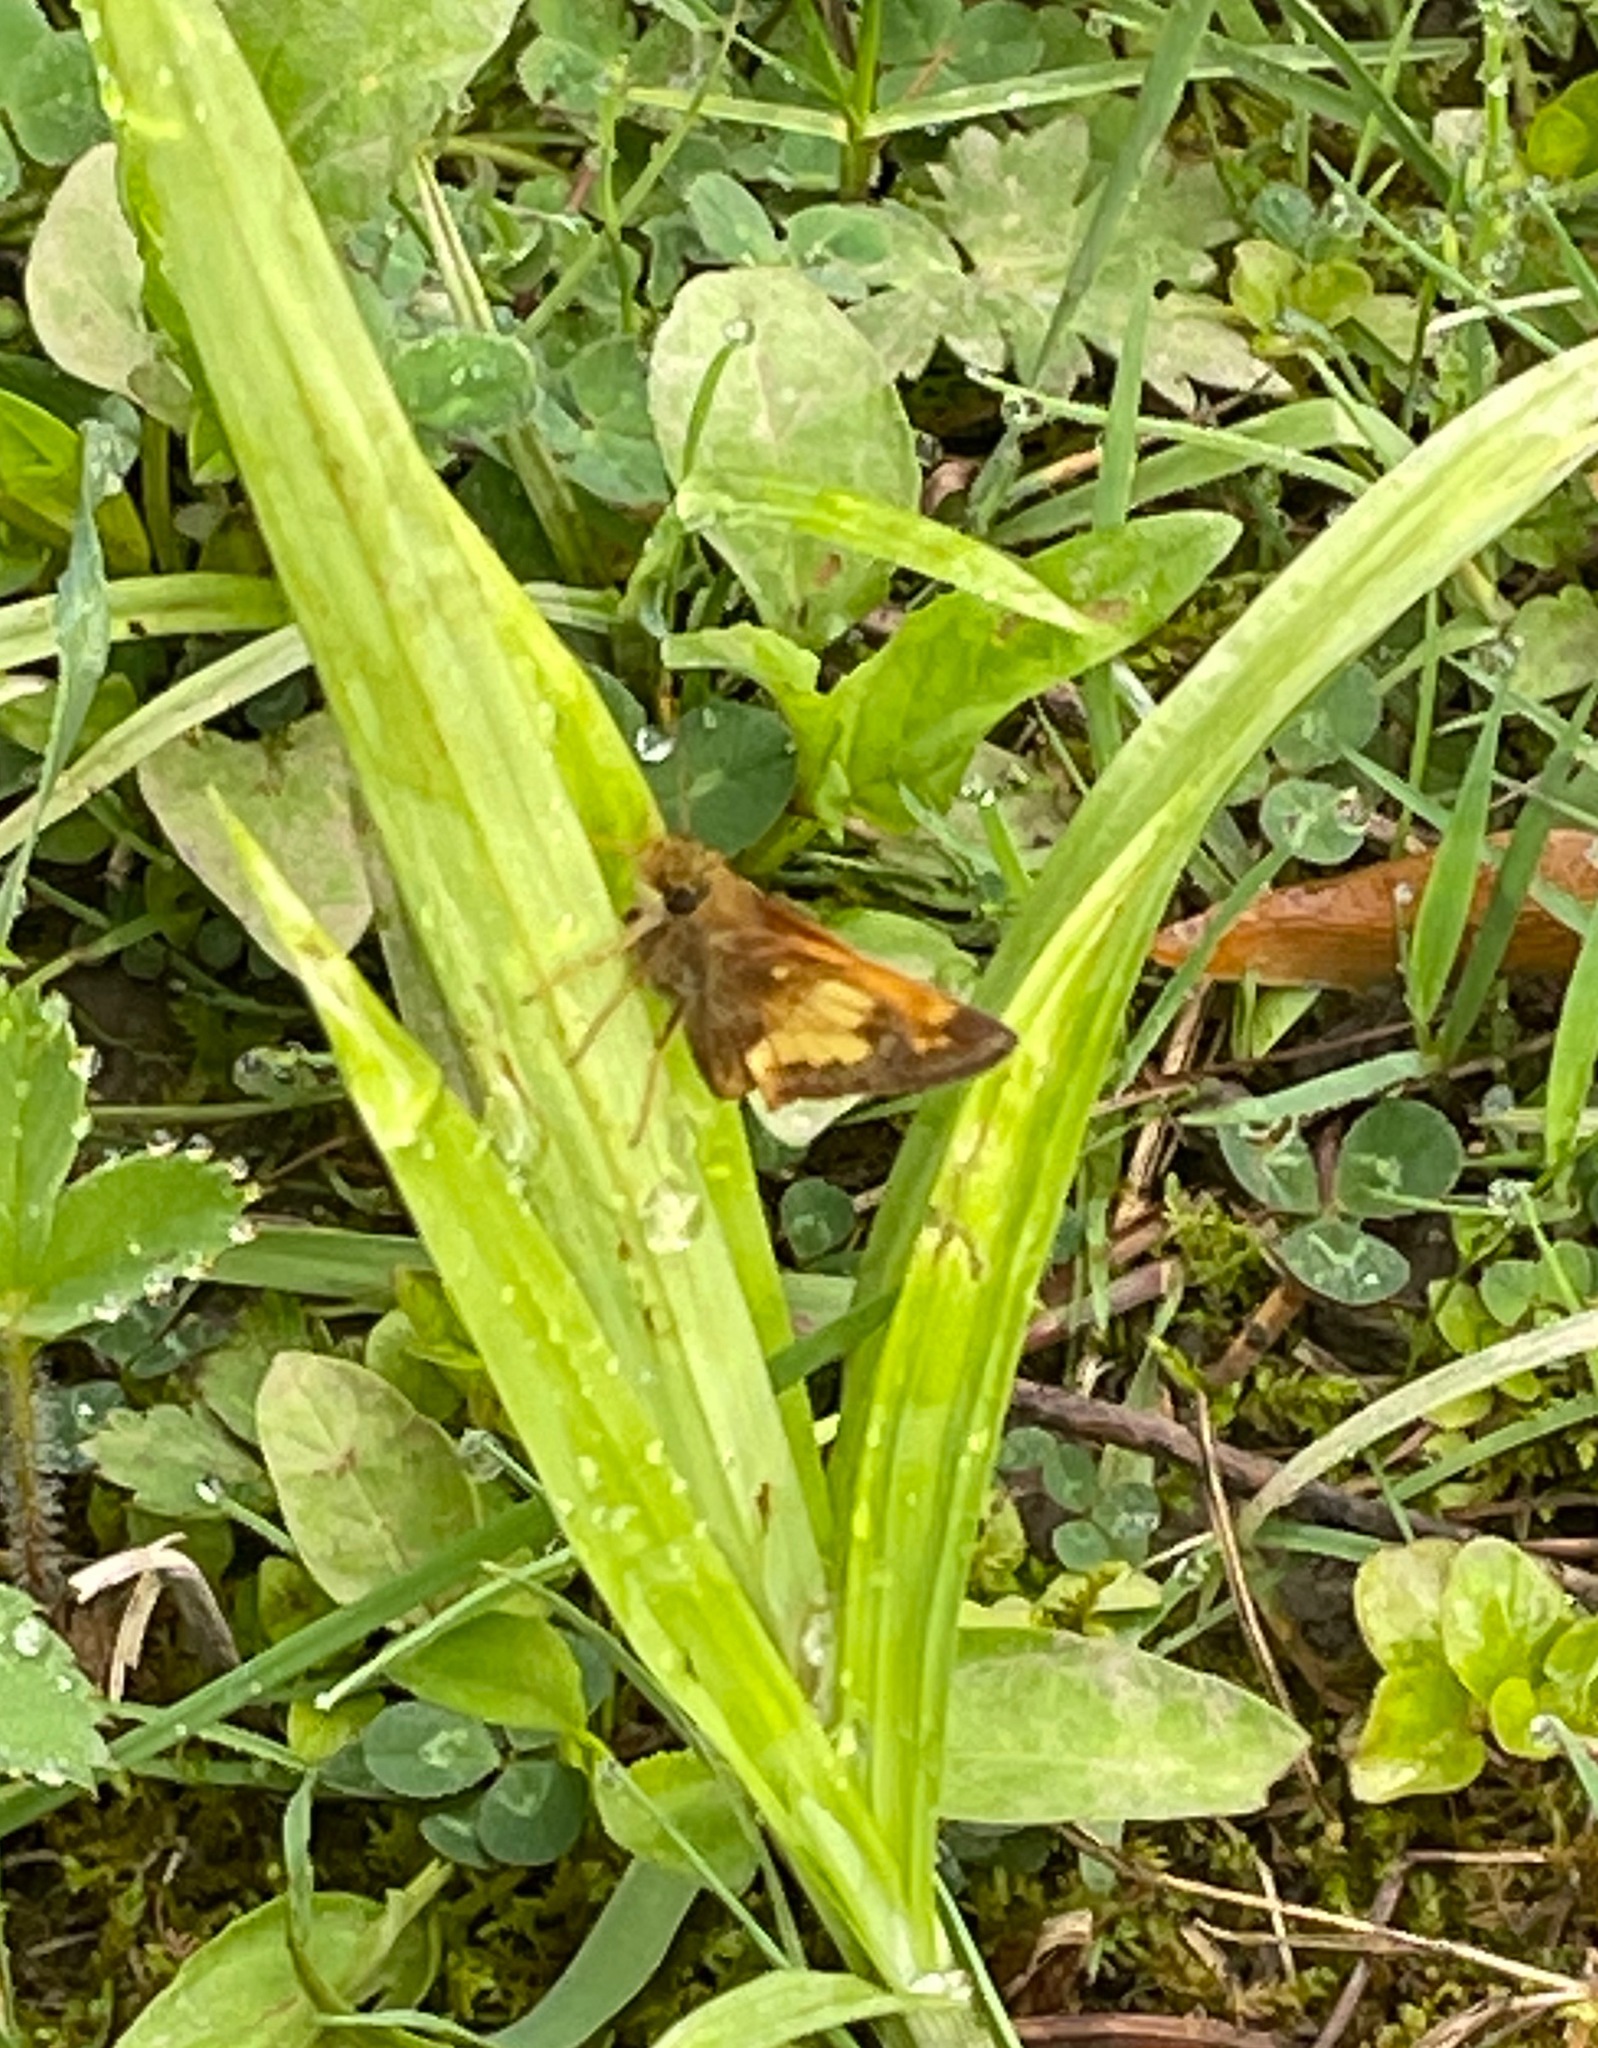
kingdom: Animalia
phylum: Arthropoda
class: Insecta
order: Lepidoptera
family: Hesperiidae
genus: Lon
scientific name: Lon hobomok
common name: Hobomok skipper
